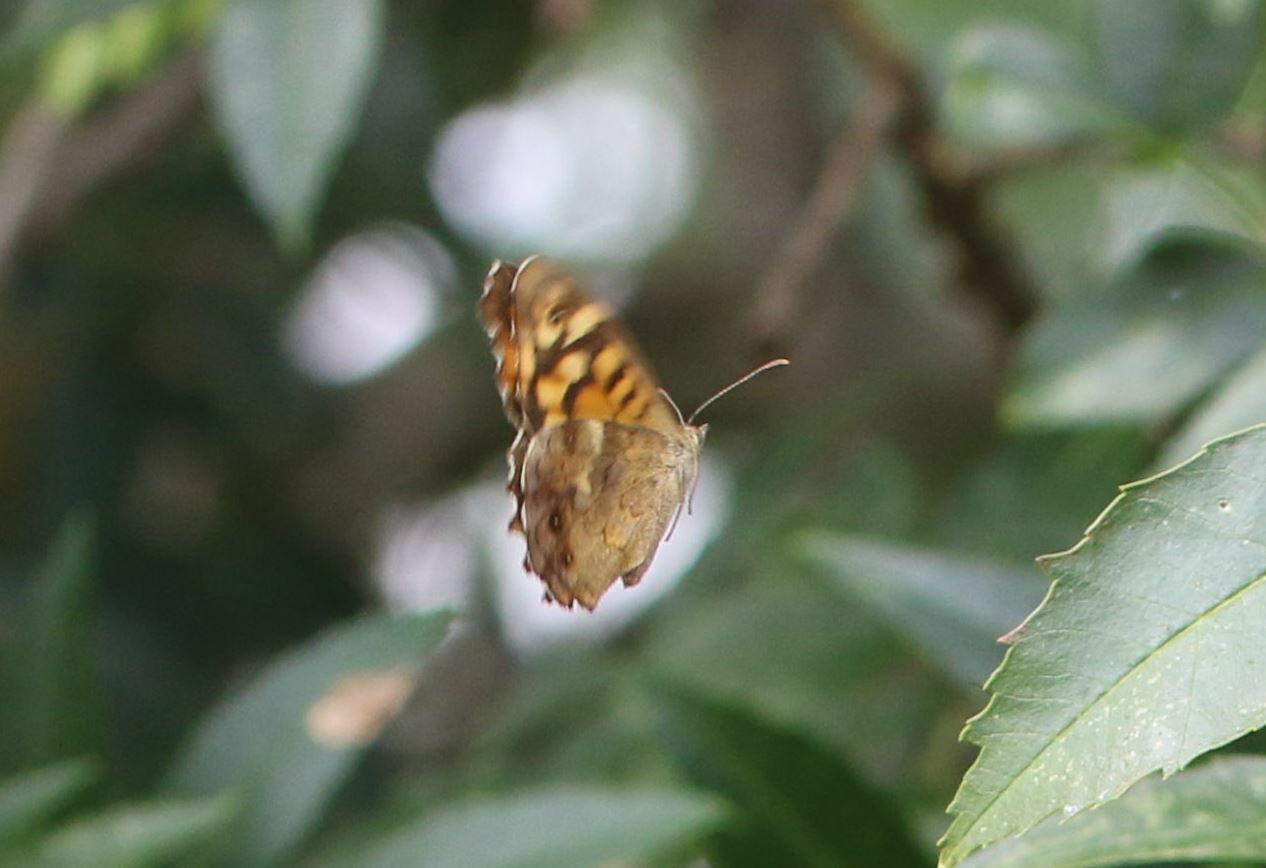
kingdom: Animalia
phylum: Arthropoda
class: Insecta
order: Lepidoptera
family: Nymphalidae
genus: Pararge
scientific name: Pararge aegeria
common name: Speckled wood
